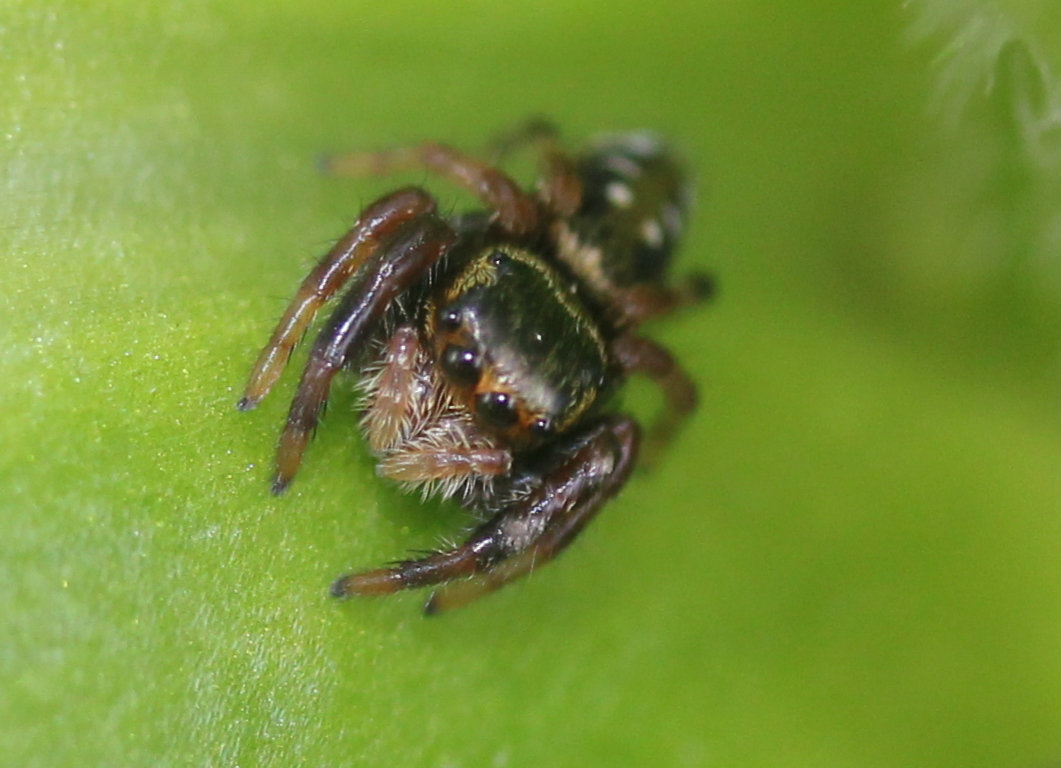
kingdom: Animalia
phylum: Arthropoda
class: Arachnida
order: Araneae
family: Salticidae
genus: Paraphidippus
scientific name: Paraphidippus aurantius
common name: Jumping spiders
